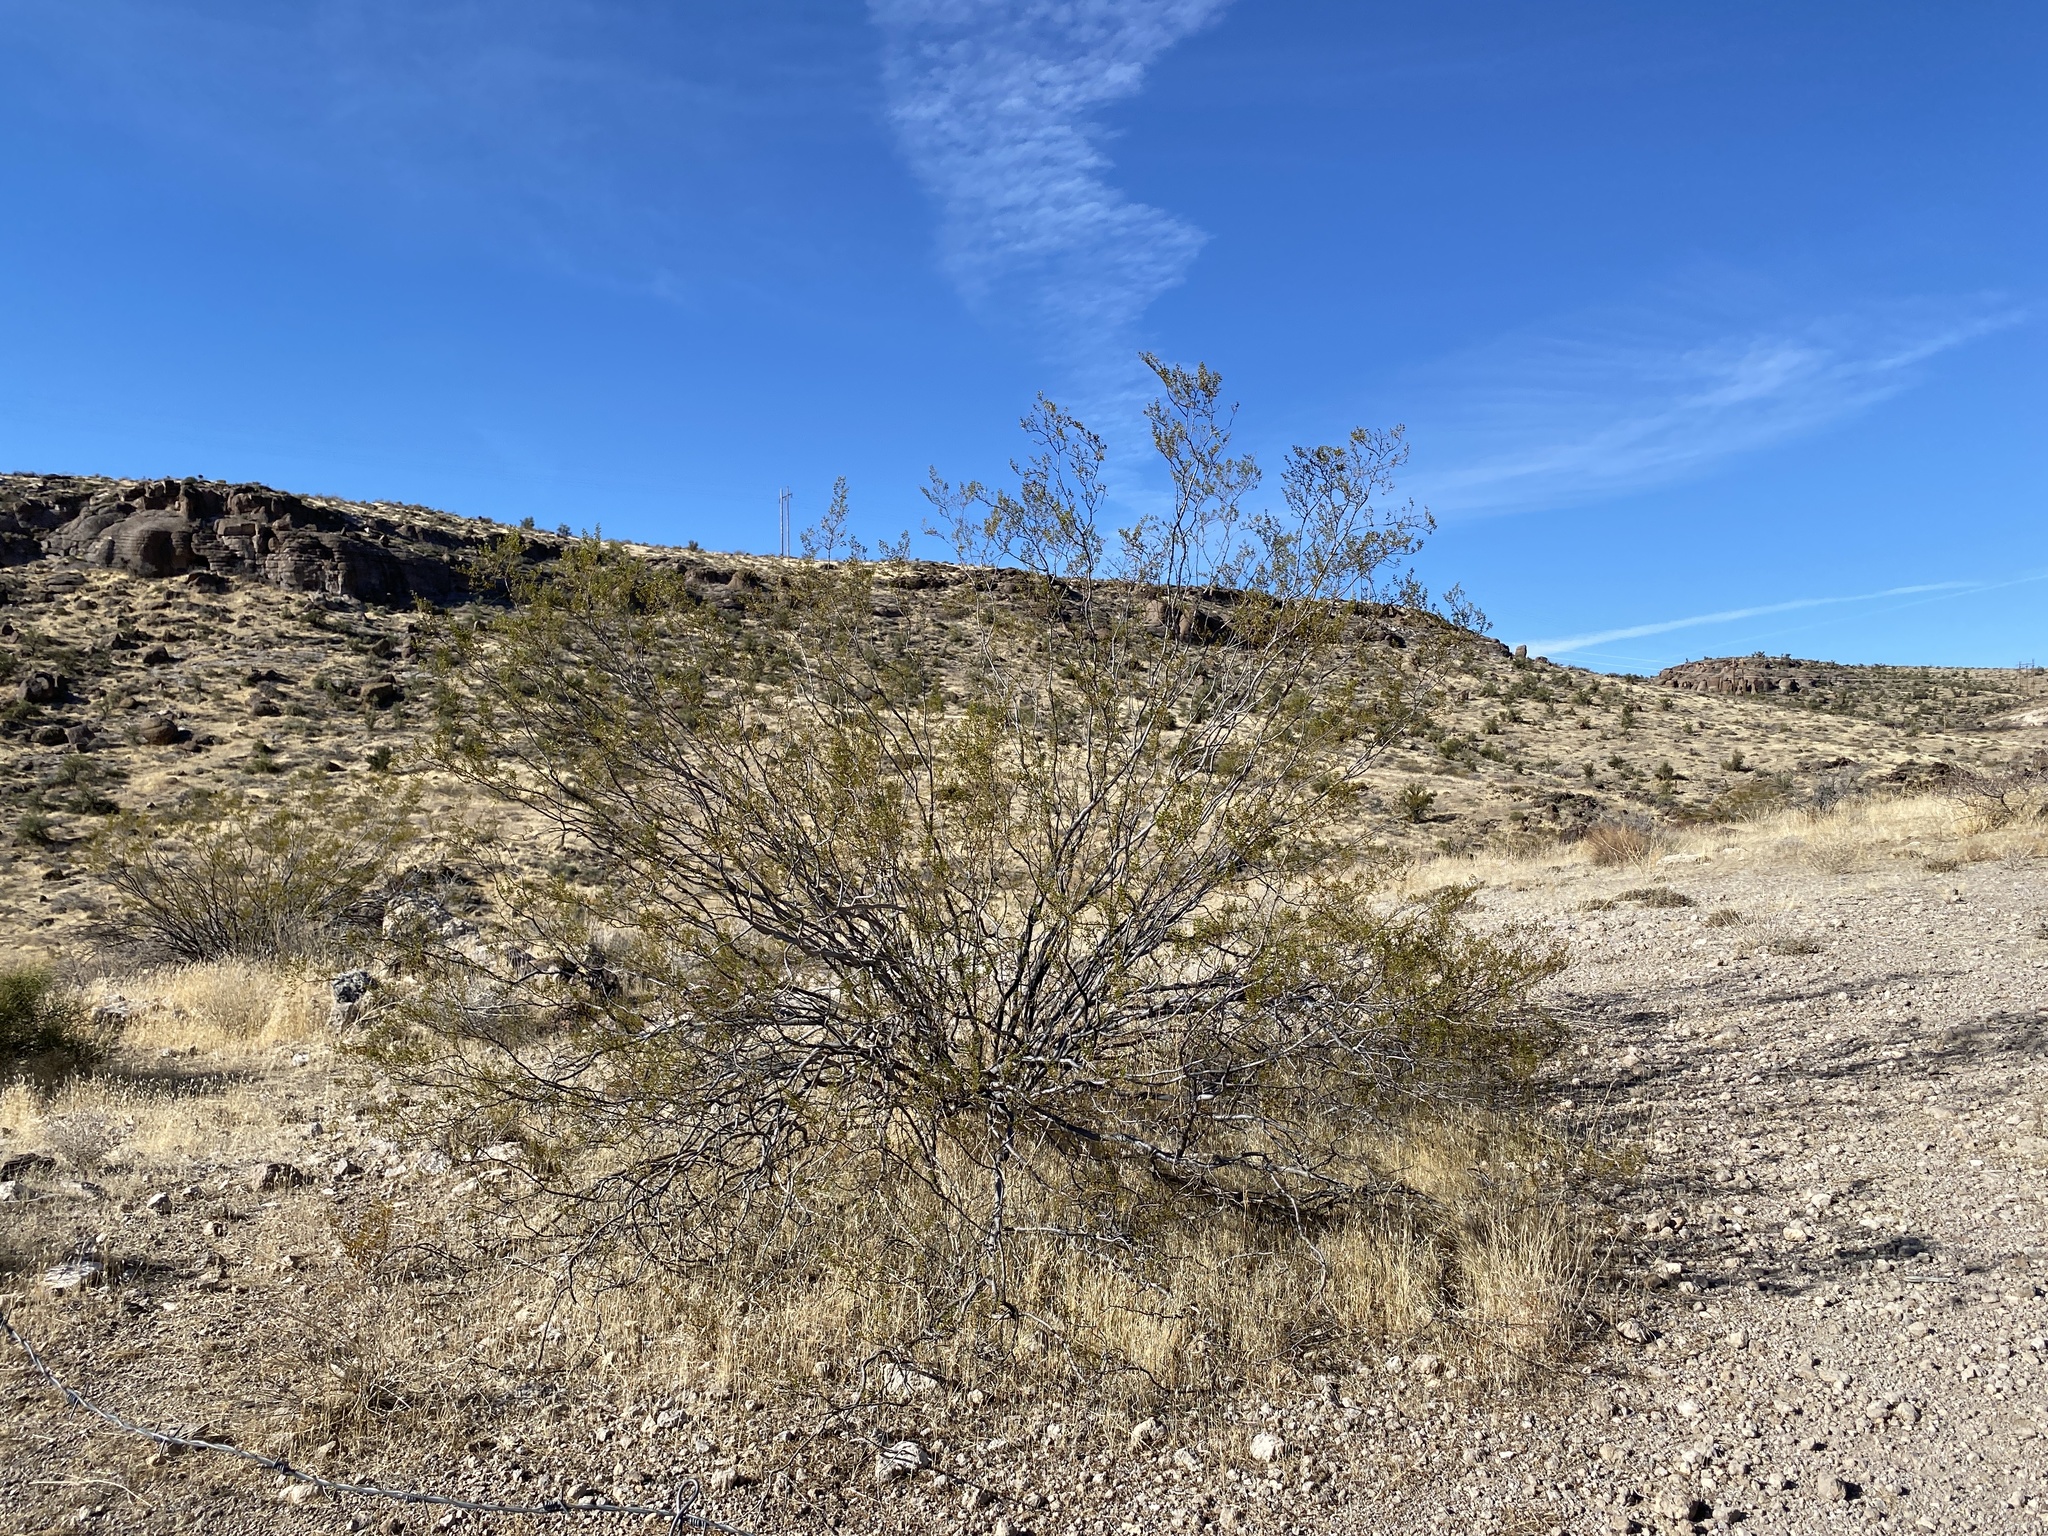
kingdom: Plantae
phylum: Tracheophyta
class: Magnoliopsida
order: Zygophyllales
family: Zygophyllaceae
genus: Larrea
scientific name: Larrea tridentata
